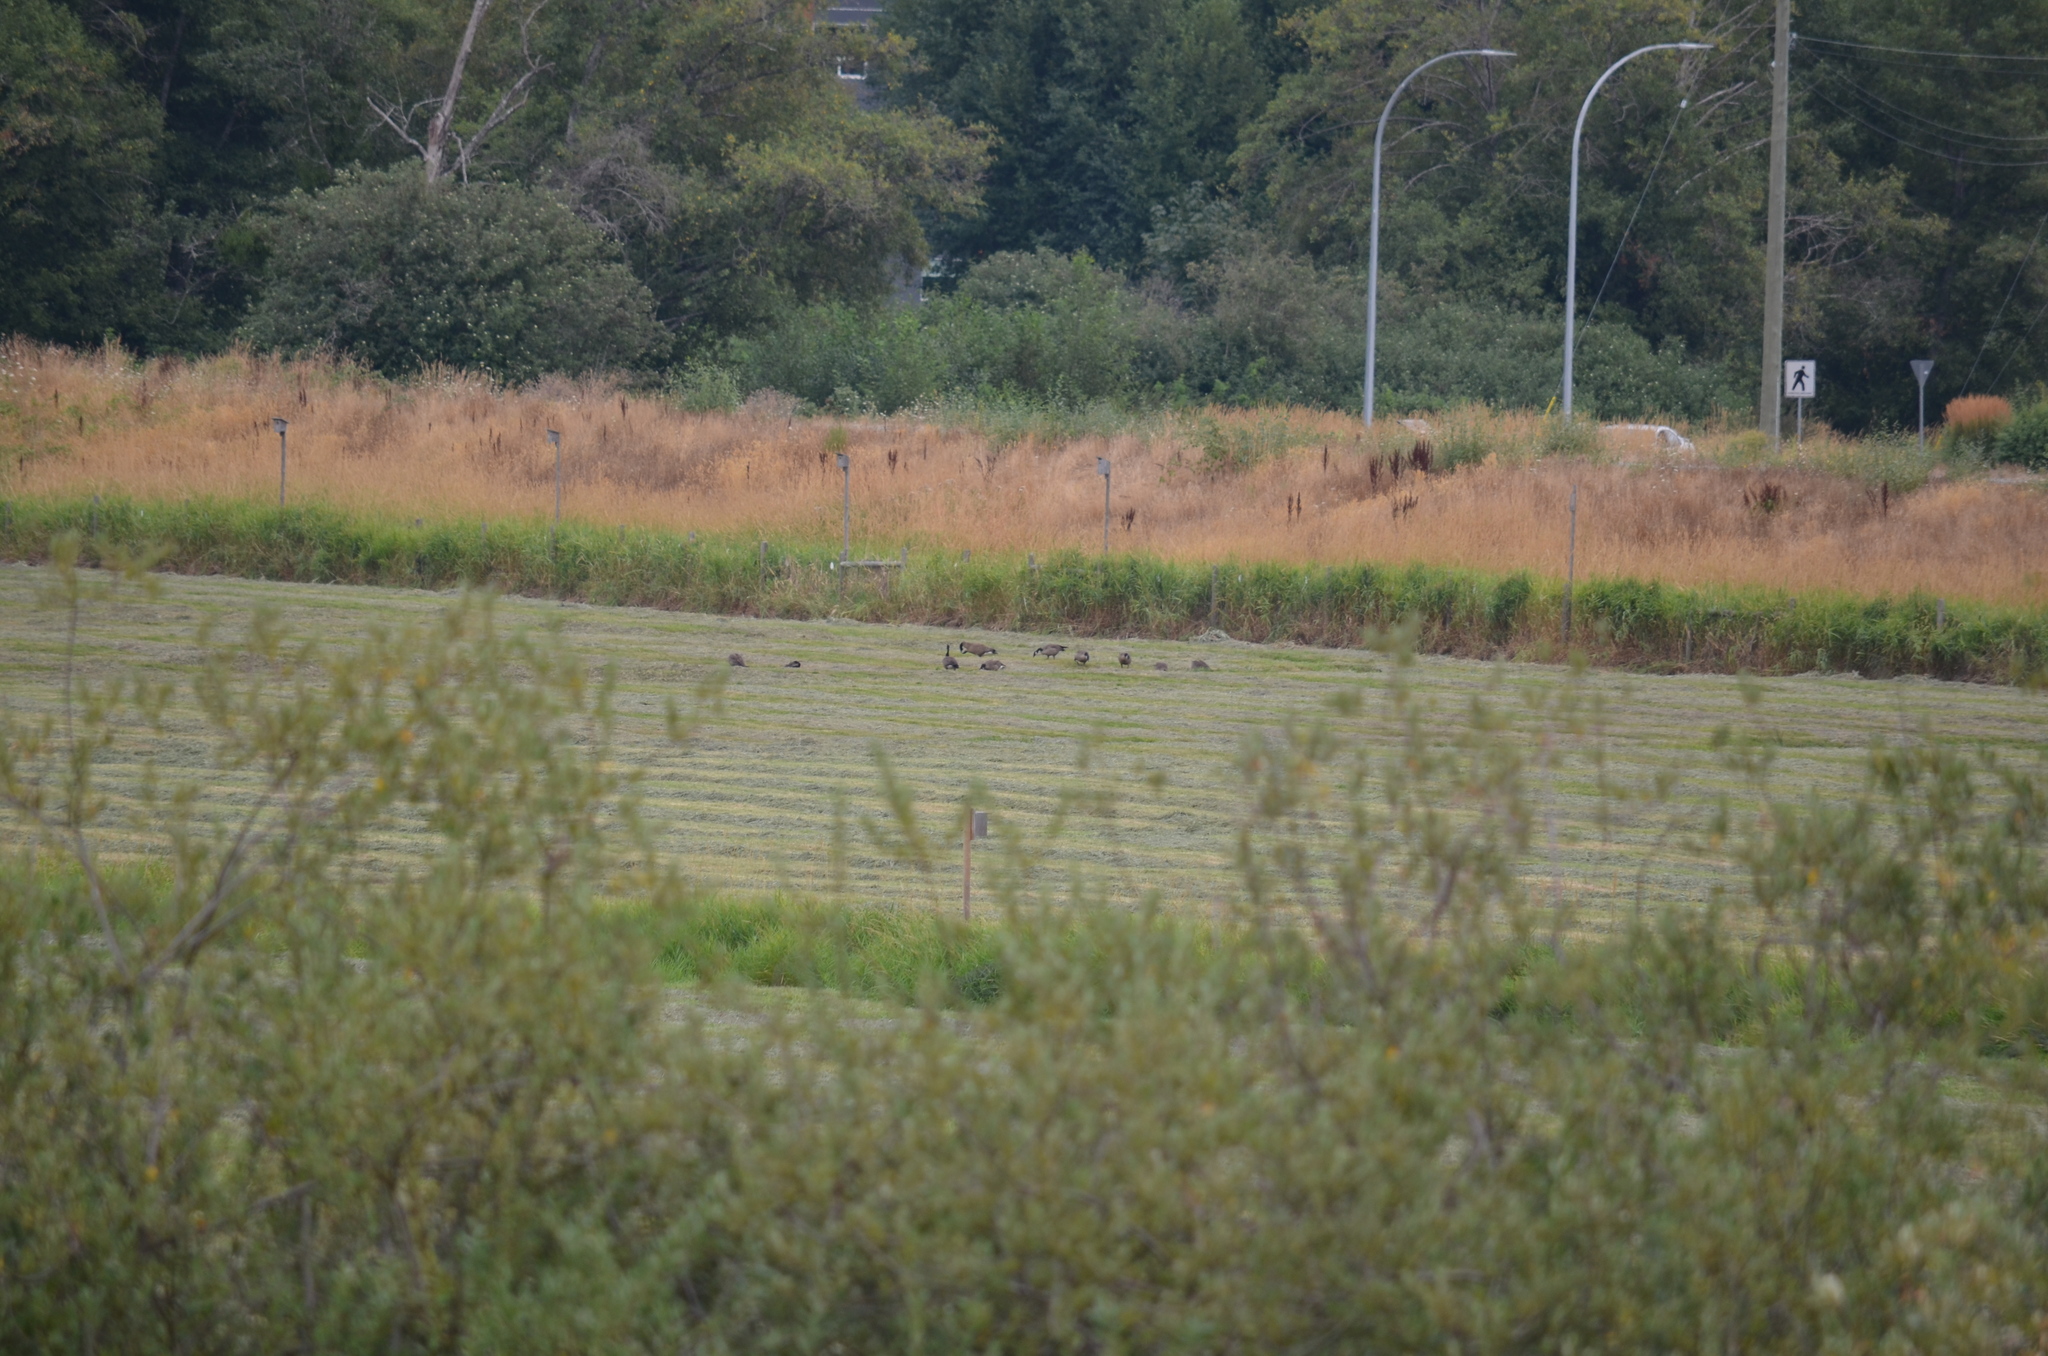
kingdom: Animalia
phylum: Chordata
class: Aves
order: Anseriformes
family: Anatidae
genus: Branta
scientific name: Branta canadensis
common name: Canada goose
